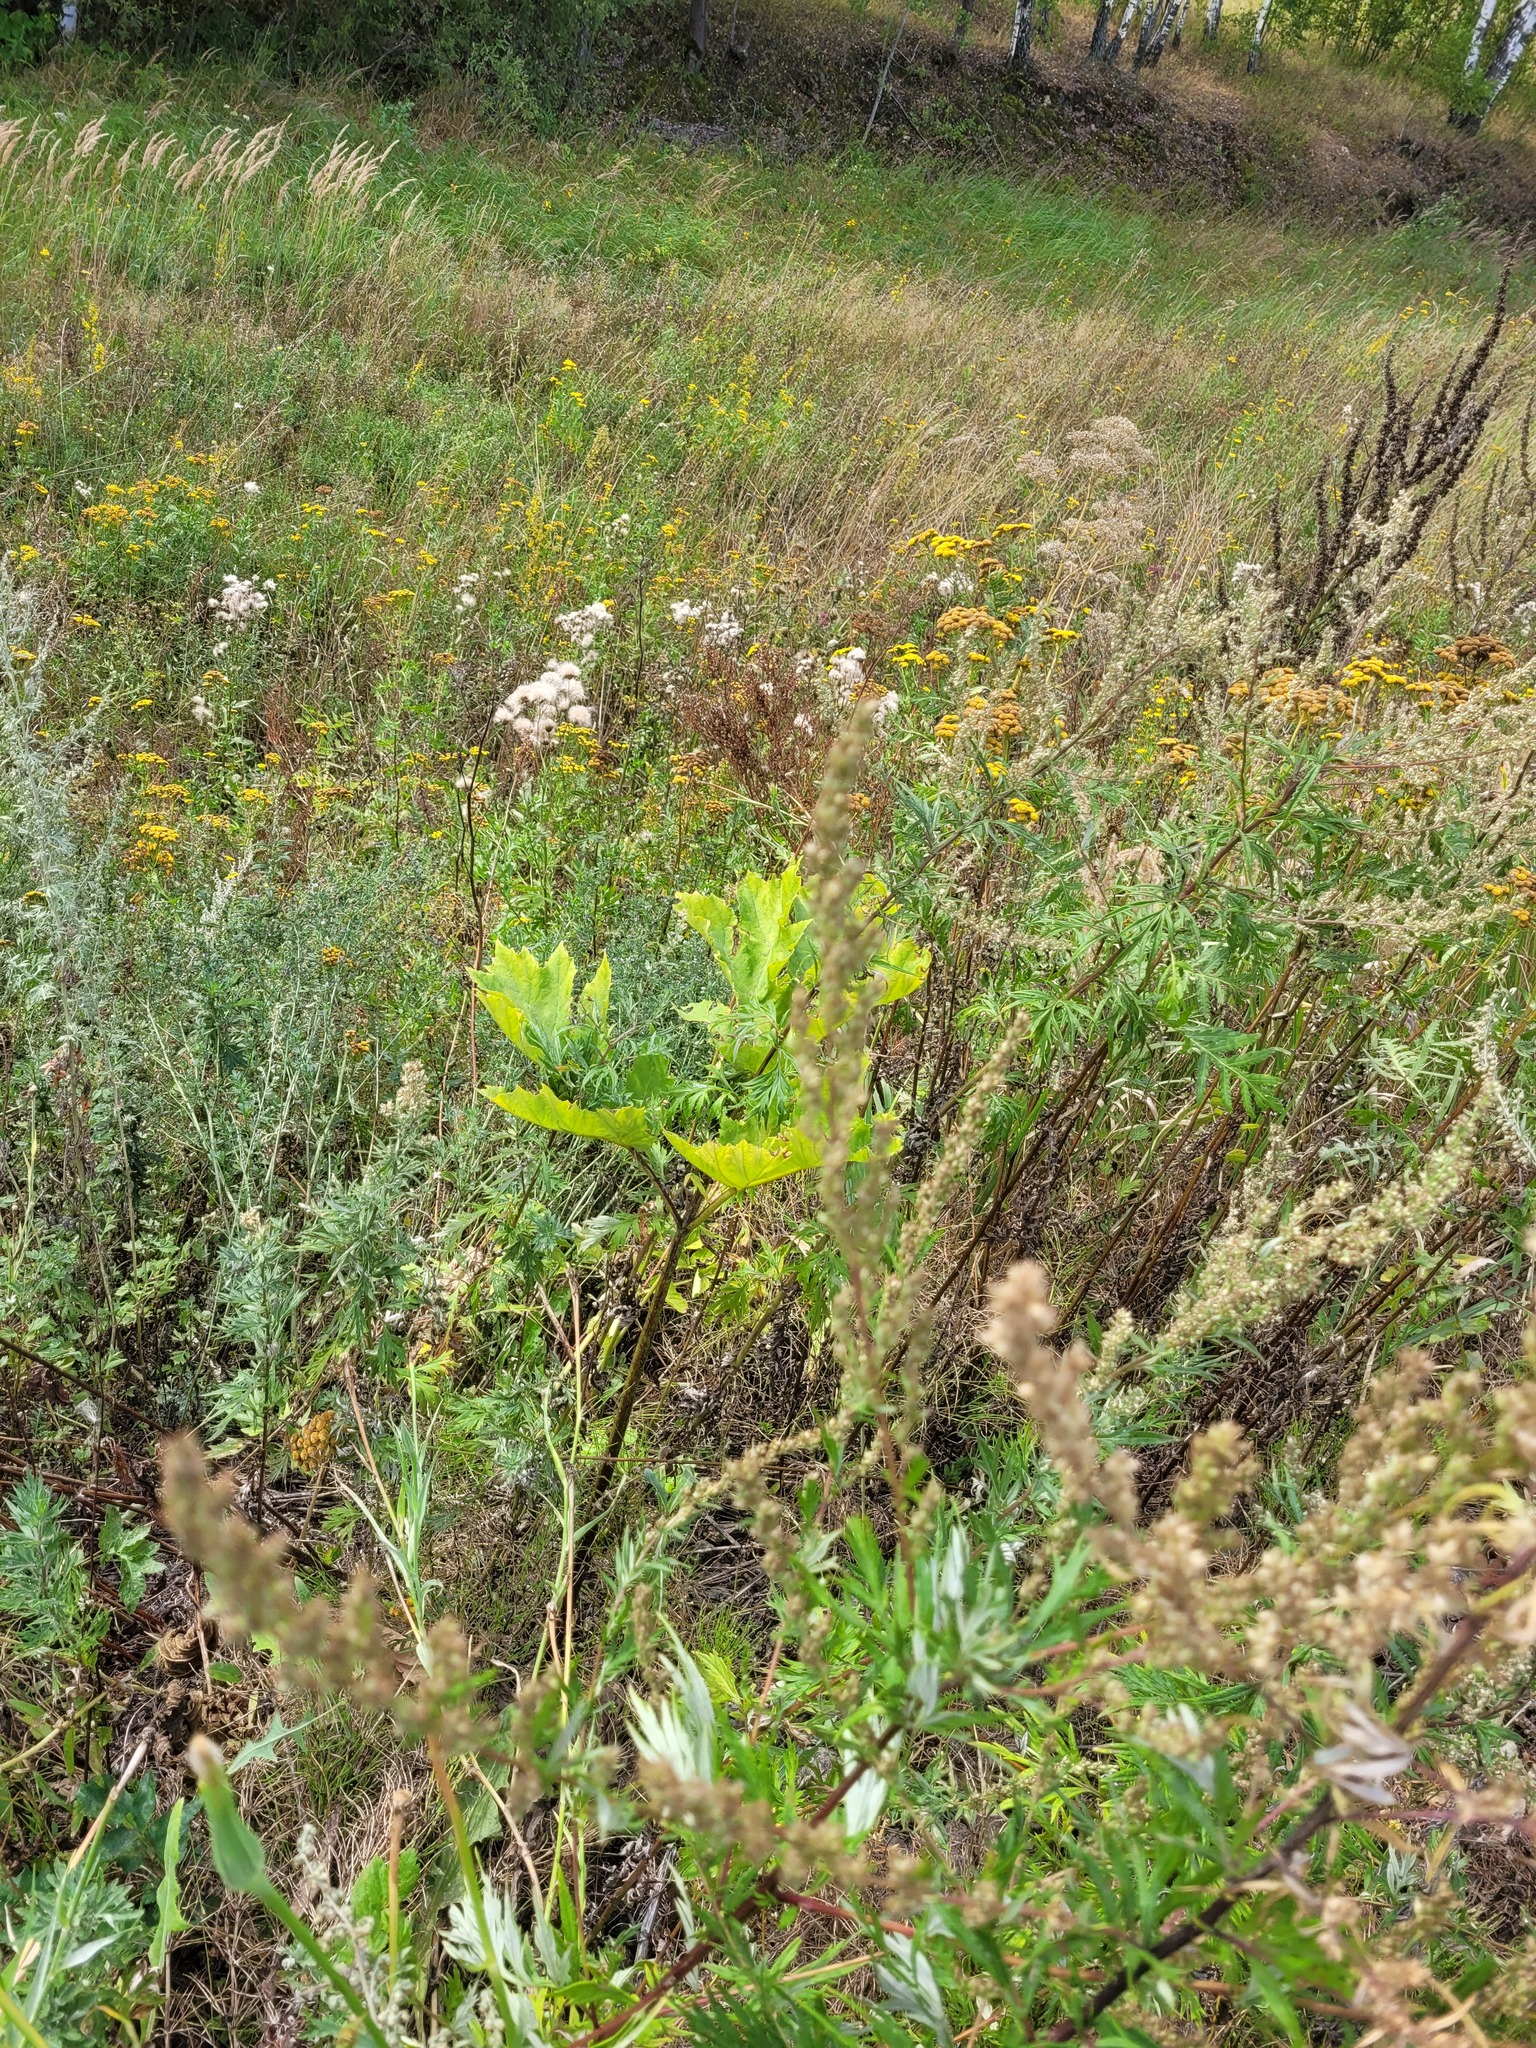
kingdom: Plantae
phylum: Tracheophyta
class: Magnoliopsida
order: Apiales
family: Apiaceae
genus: Heracleum
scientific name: Heracleum sosnowskyi
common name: Sosnowsky's hogweed
